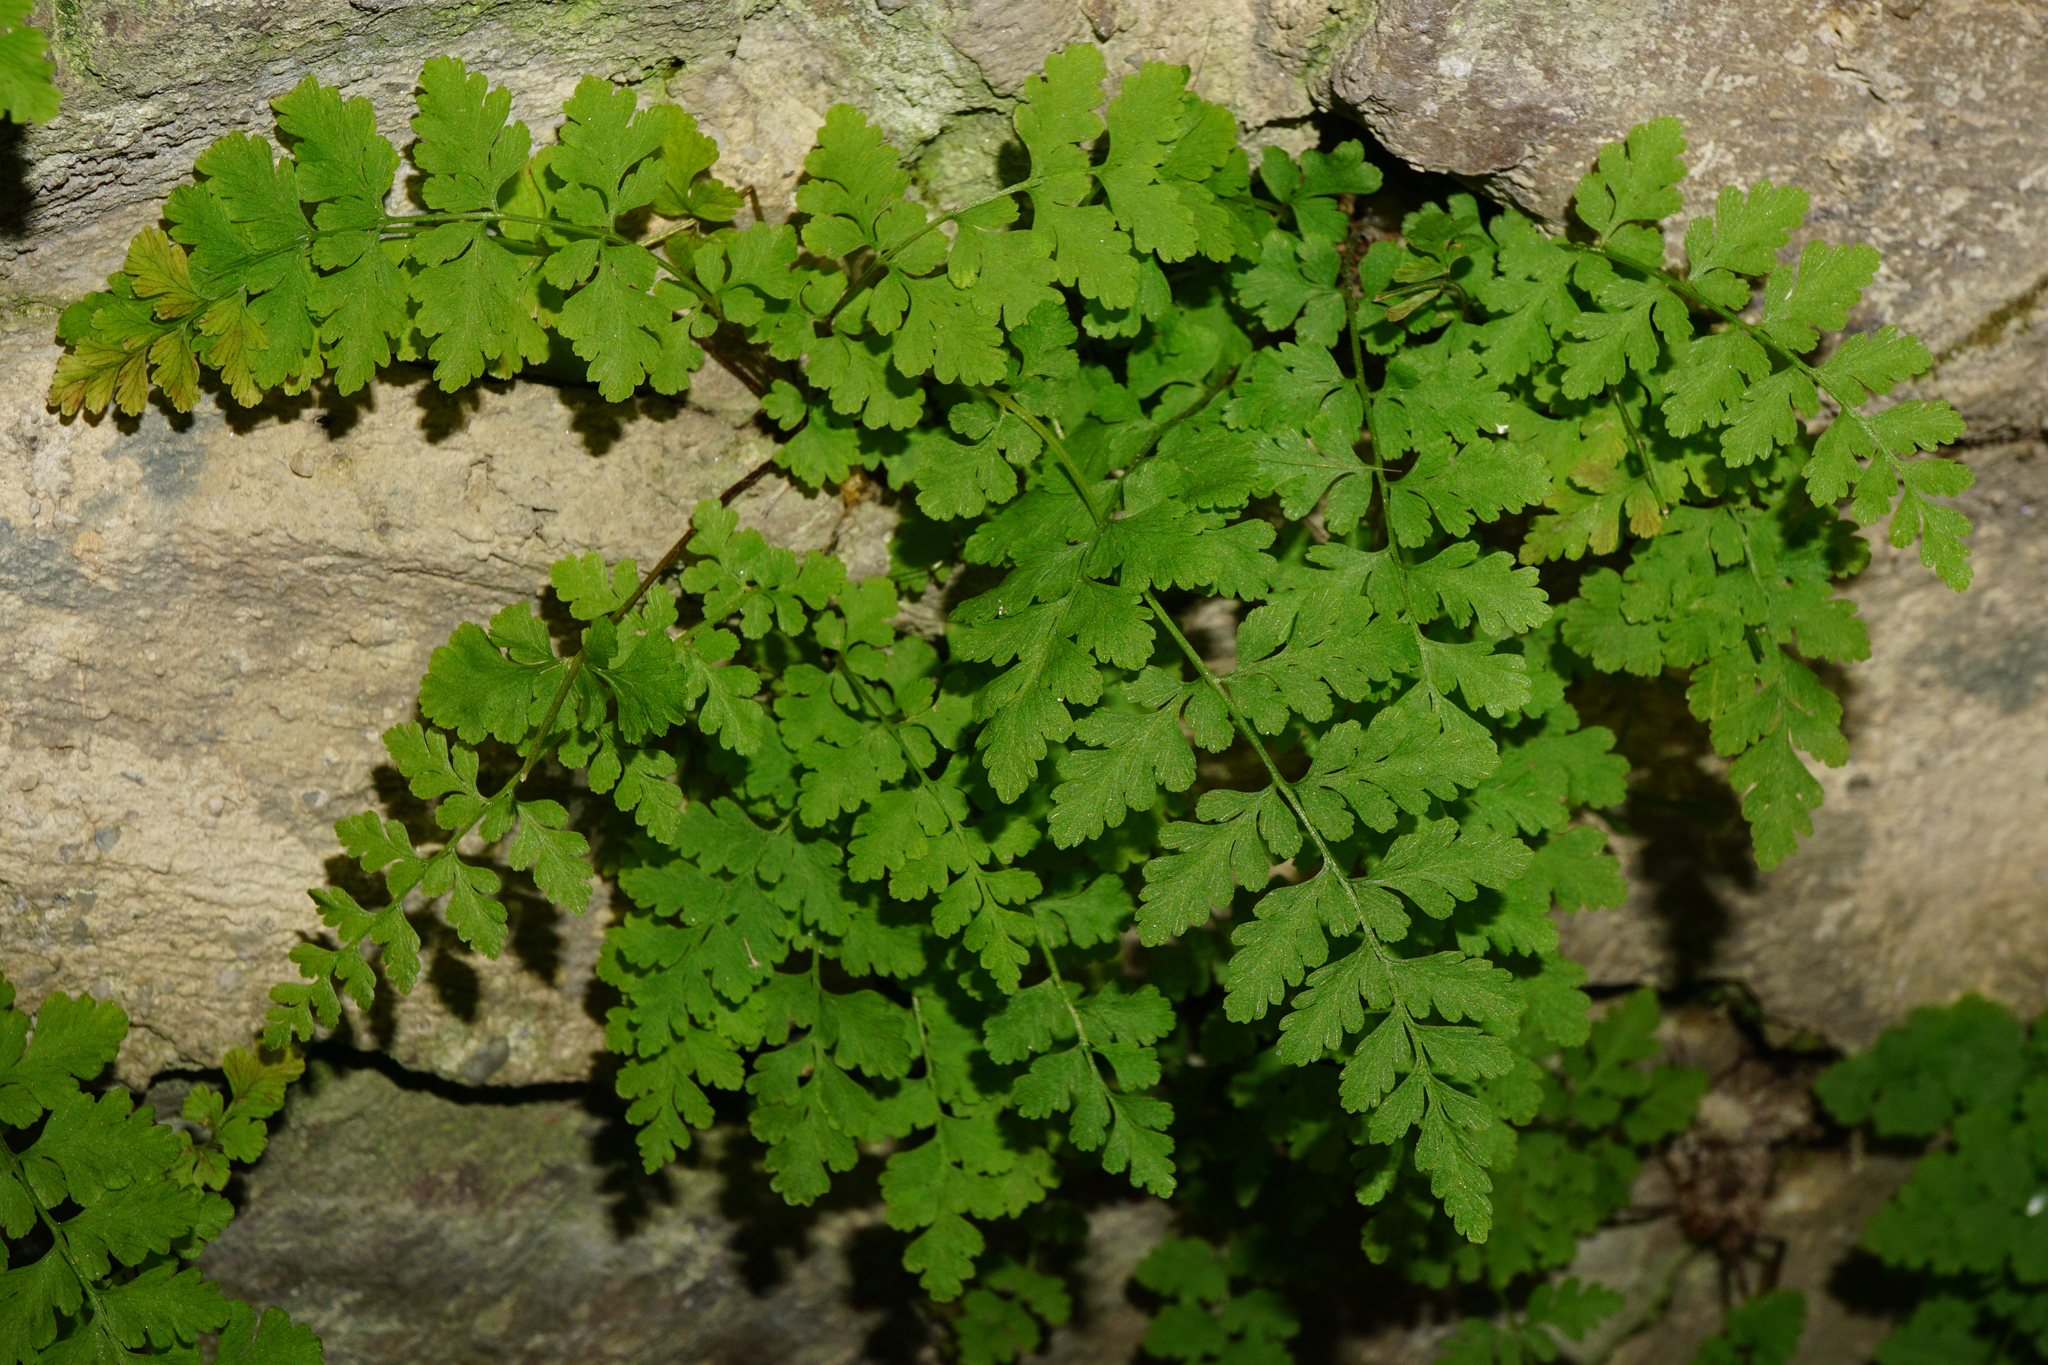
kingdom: Plantae
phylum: Tracheophyta
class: Polypodiopsida
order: Polypodiales
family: Cystopteridaceae
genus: Cystopteris
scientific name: Cystopteris fragilis
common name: Brittle bladder fern
